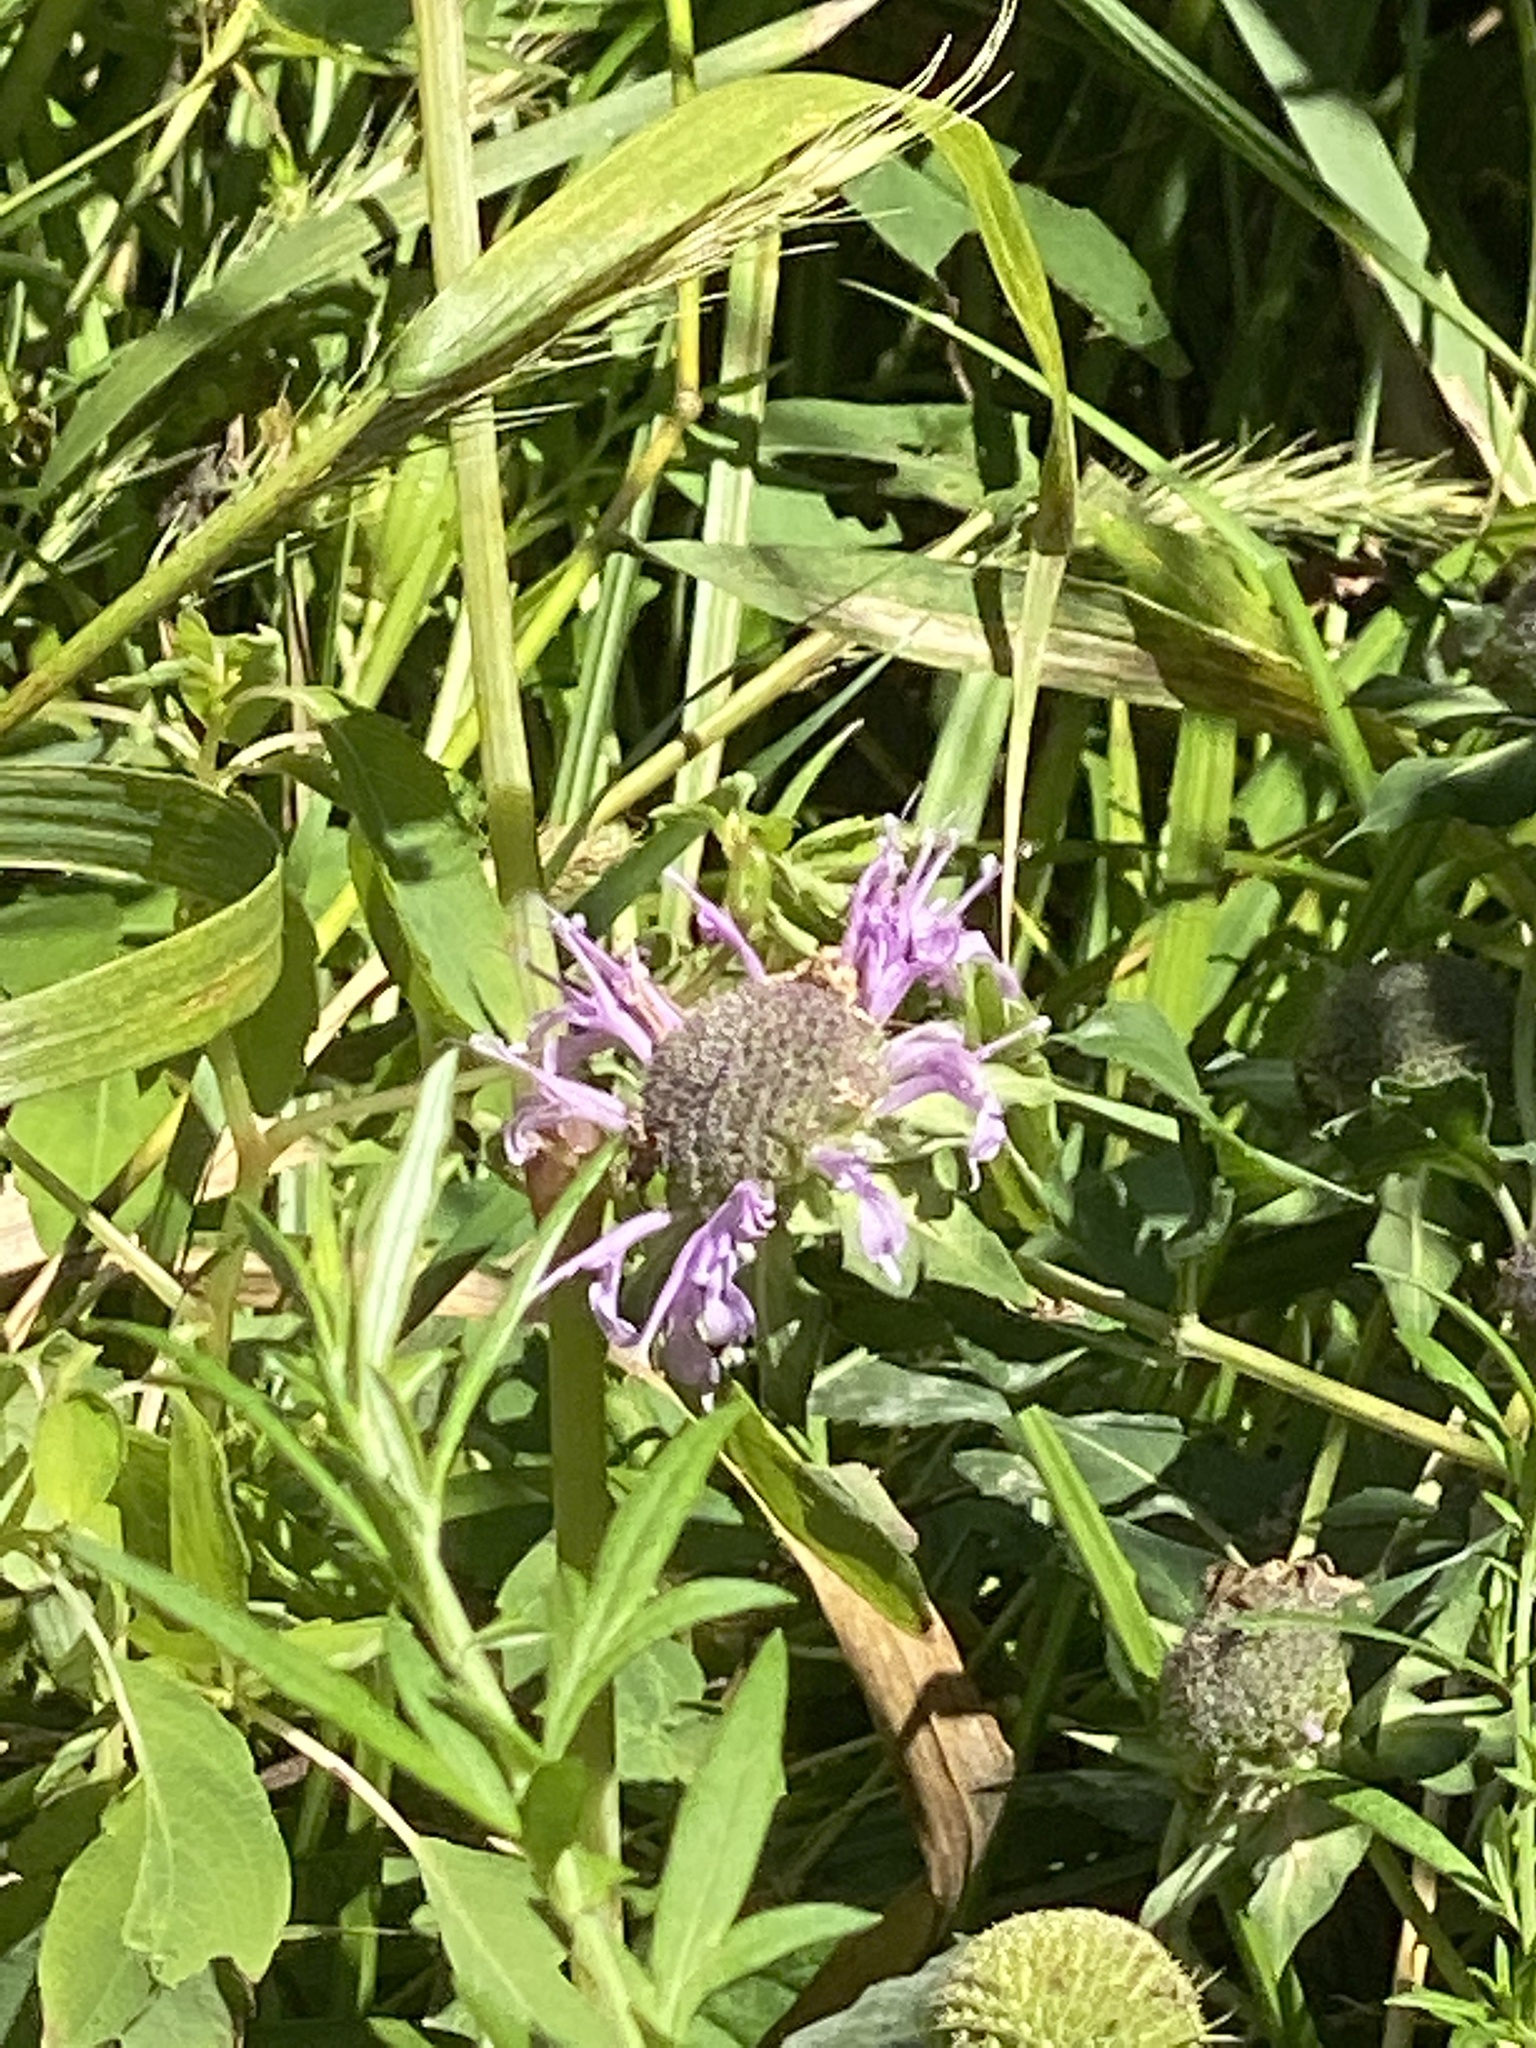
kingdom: Plantae
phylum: Tracheophyta
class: Magnoliopsida
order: Lamiales
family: Lamiaceae
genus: Monarda
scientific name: Monarda fistulosa
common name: Purple beebalm
